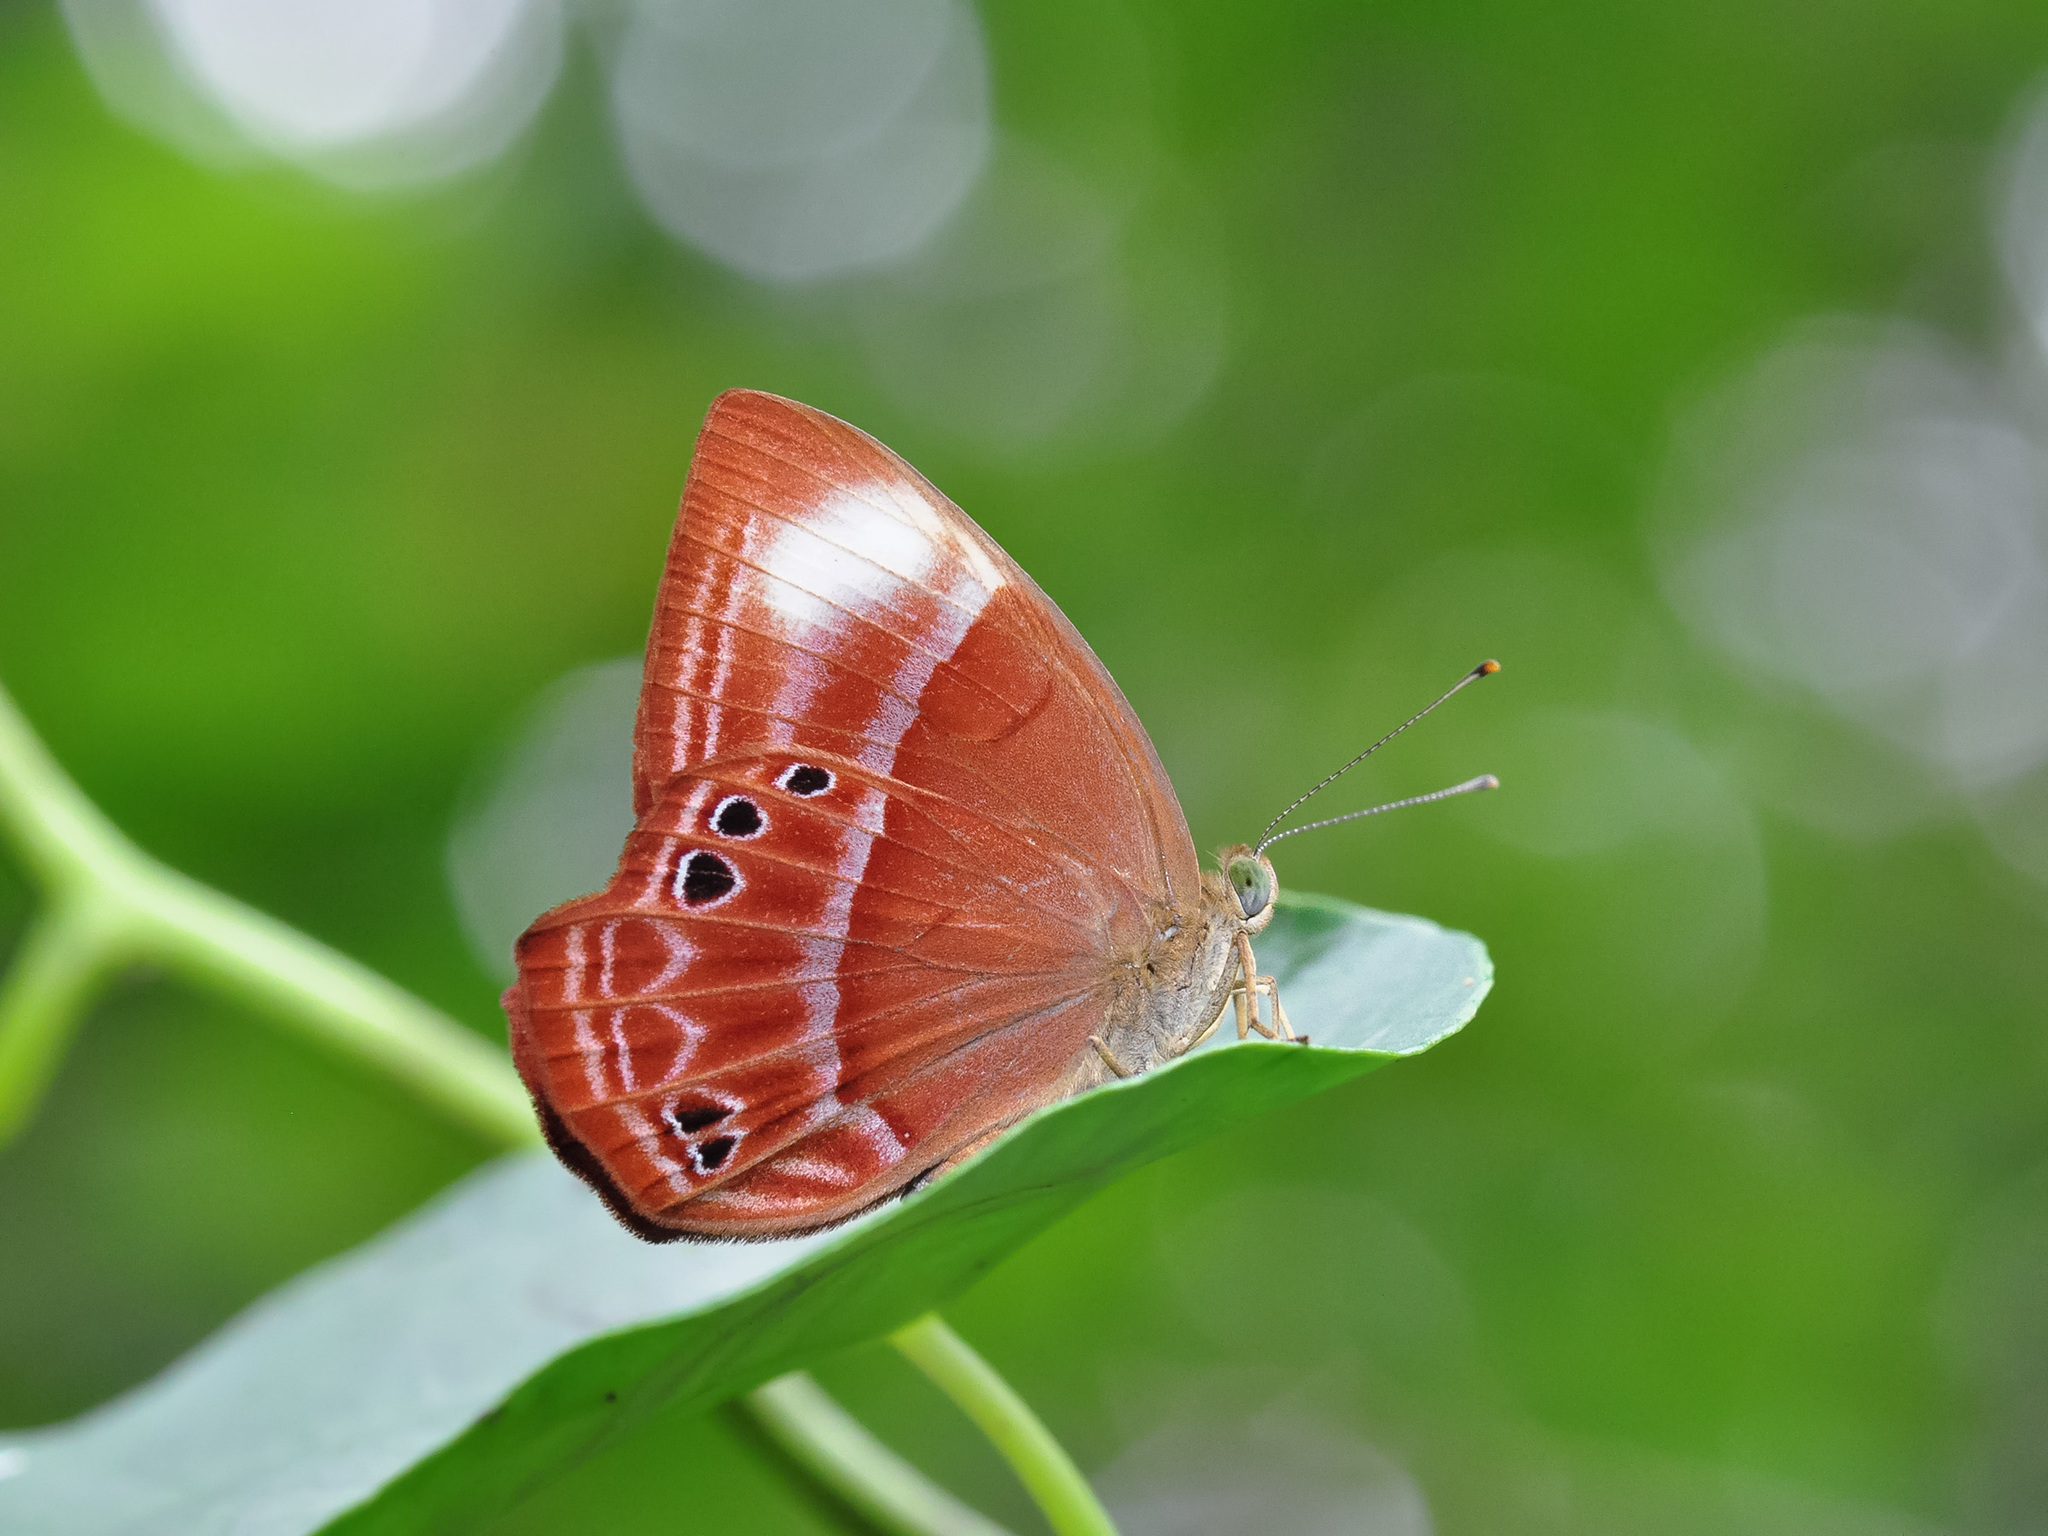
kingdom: Animalia
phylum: Arthropoda
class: Insecta
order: Lepidoptera
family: Lycaenidae
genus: Abisara
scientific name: Abisara kausambi
